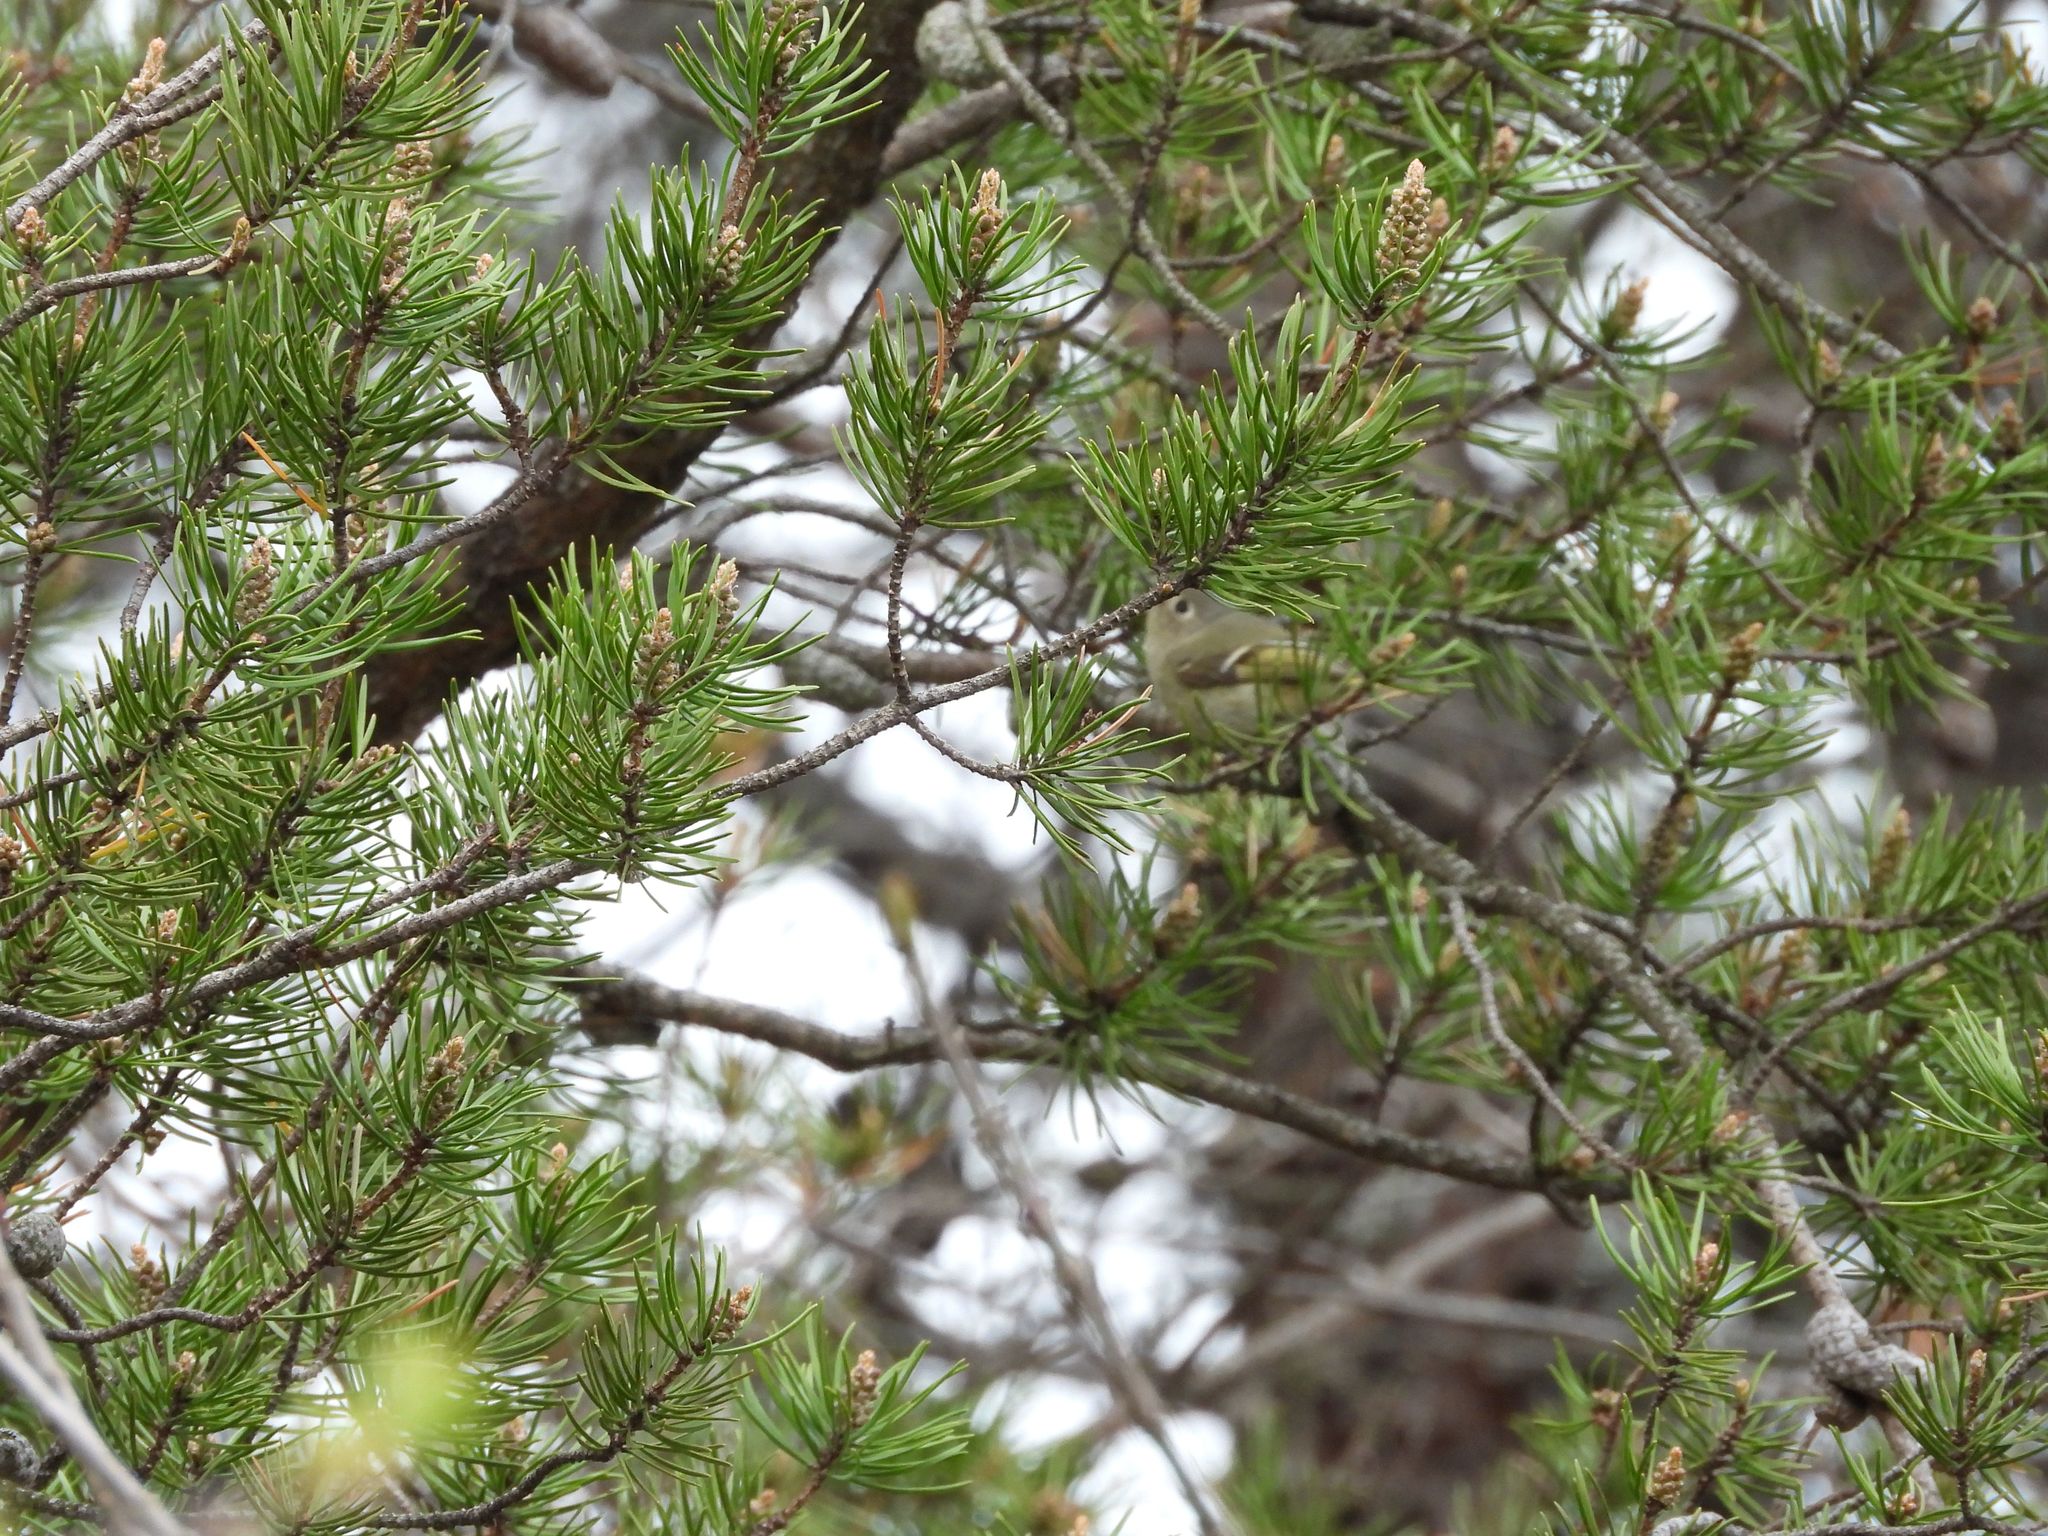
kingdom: Animalia
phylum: Chordata
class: Aves
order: Passeriformes
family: Regulidae
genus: Regulus
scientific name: Regulus calendula
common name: Ruby-crowned kinglet
